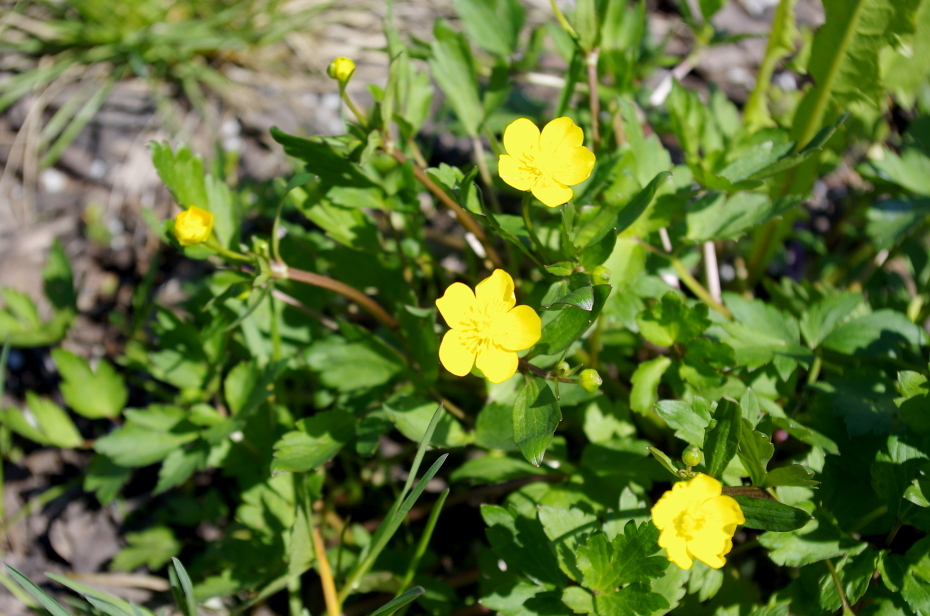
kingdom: Plantae
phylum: Tracheophyta
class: Magnoliopsida
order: Ranunculales
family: Ranunculaceae
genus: Ranunculus
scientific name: Ranunculus repens
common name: Creeping buttercup
